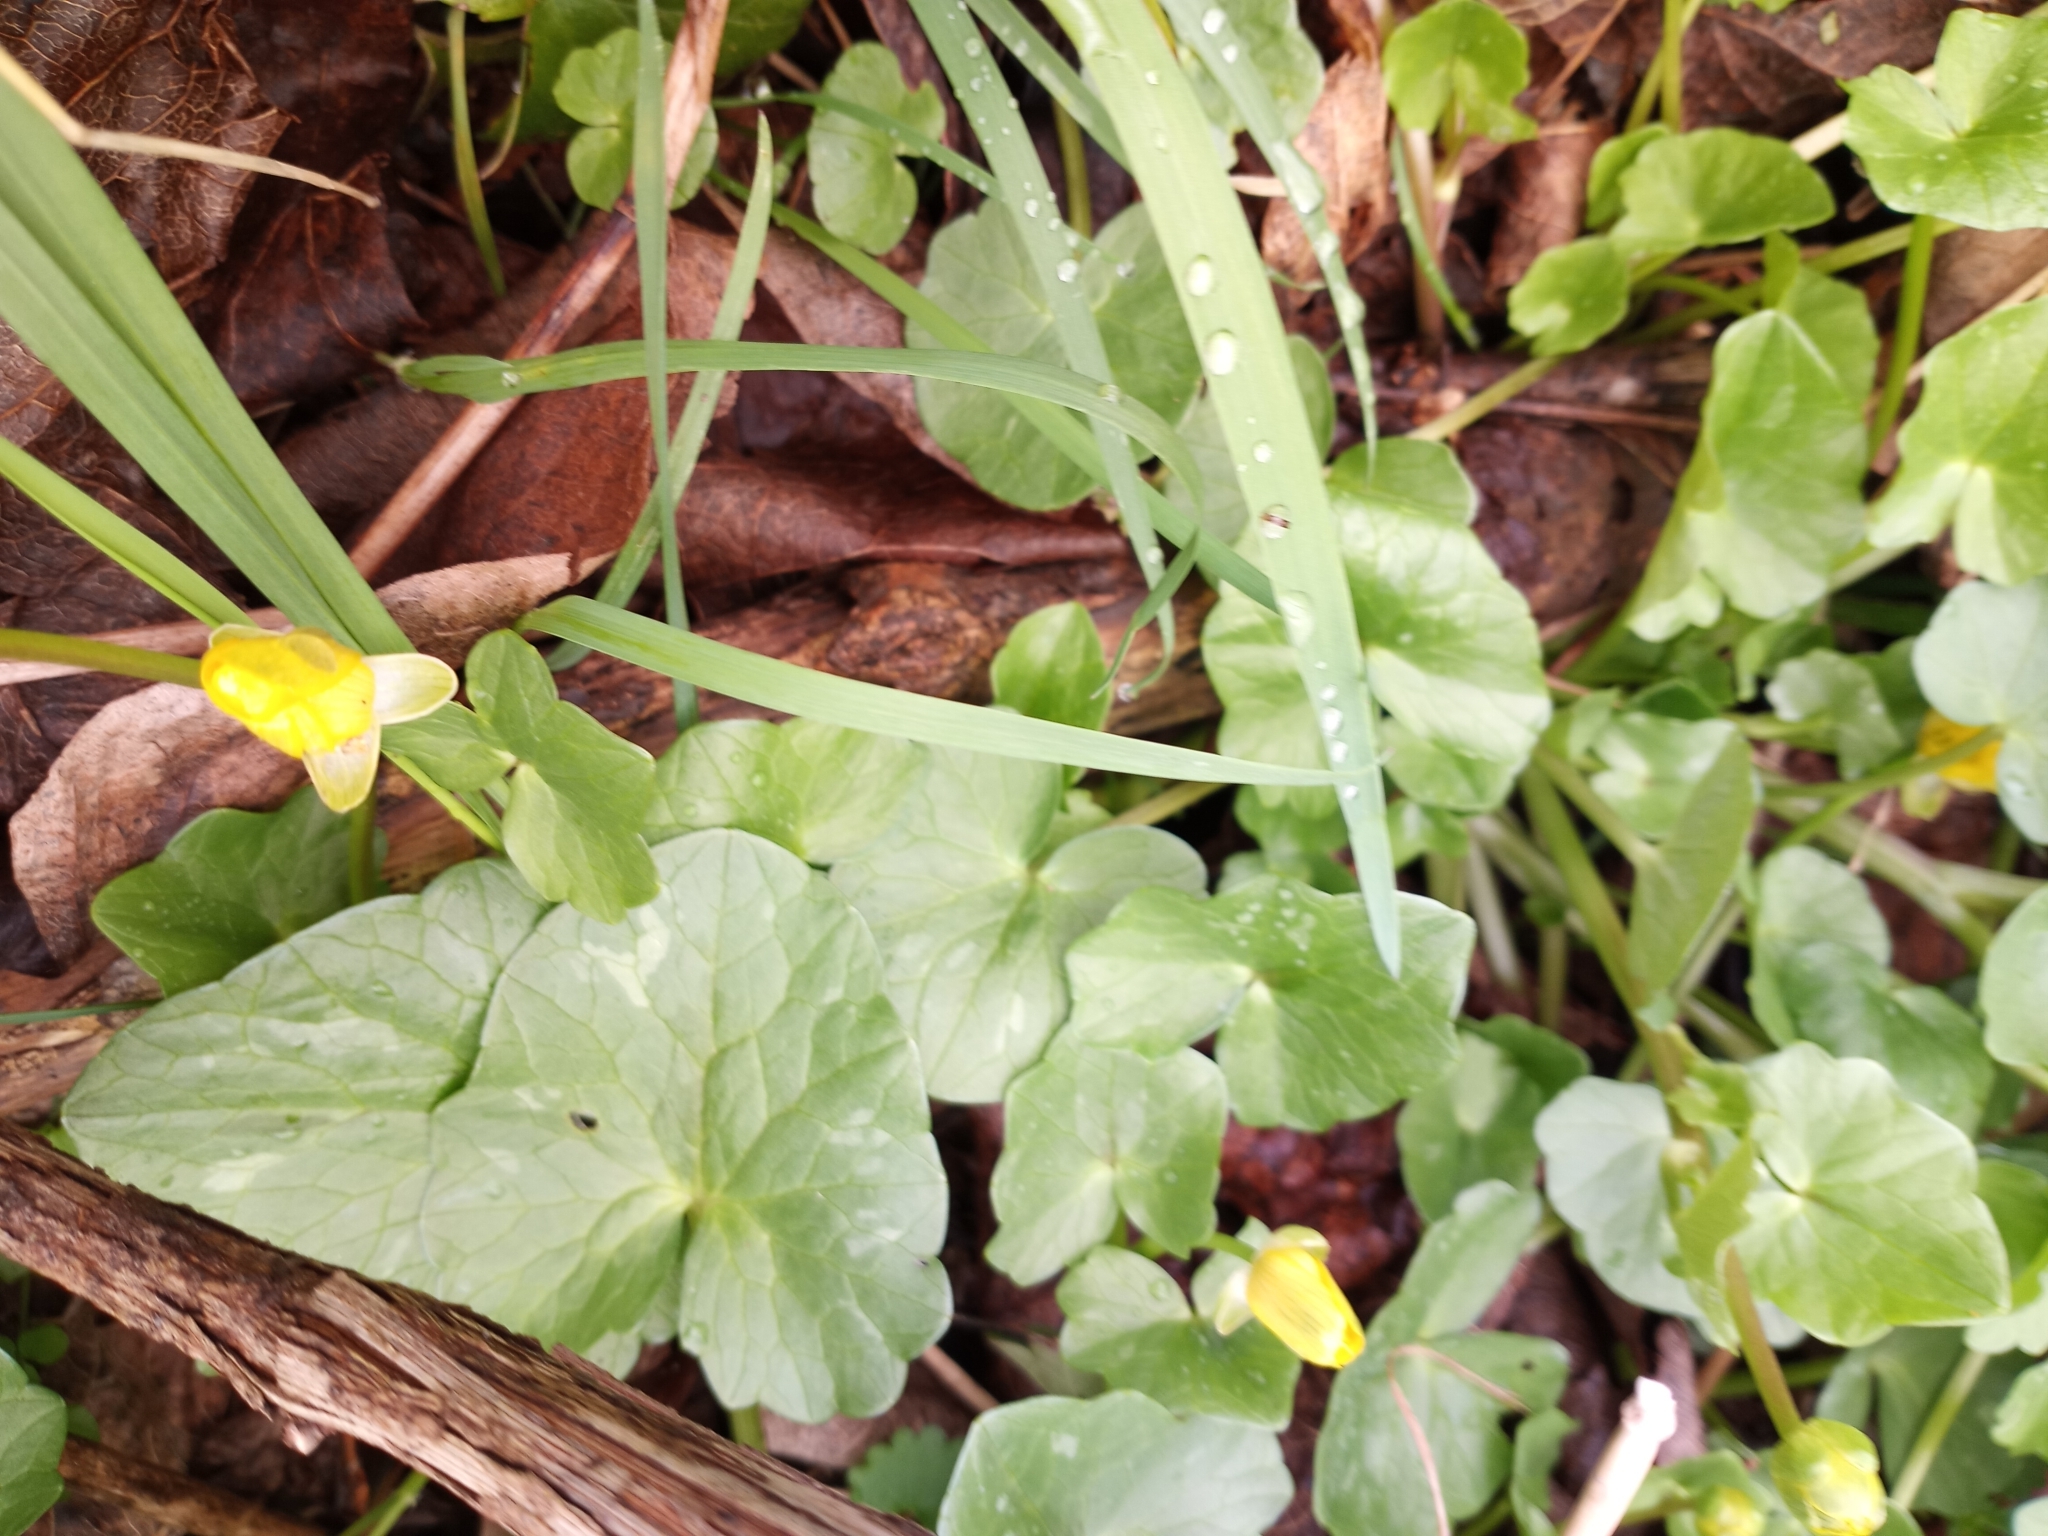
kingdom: Plantae
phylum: Tracheophyta
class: Magnoliopsida
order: Ranunculales
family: Ranunculaceae
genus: Ficaria
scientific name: Ficaria verna
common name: Lesser celandine
